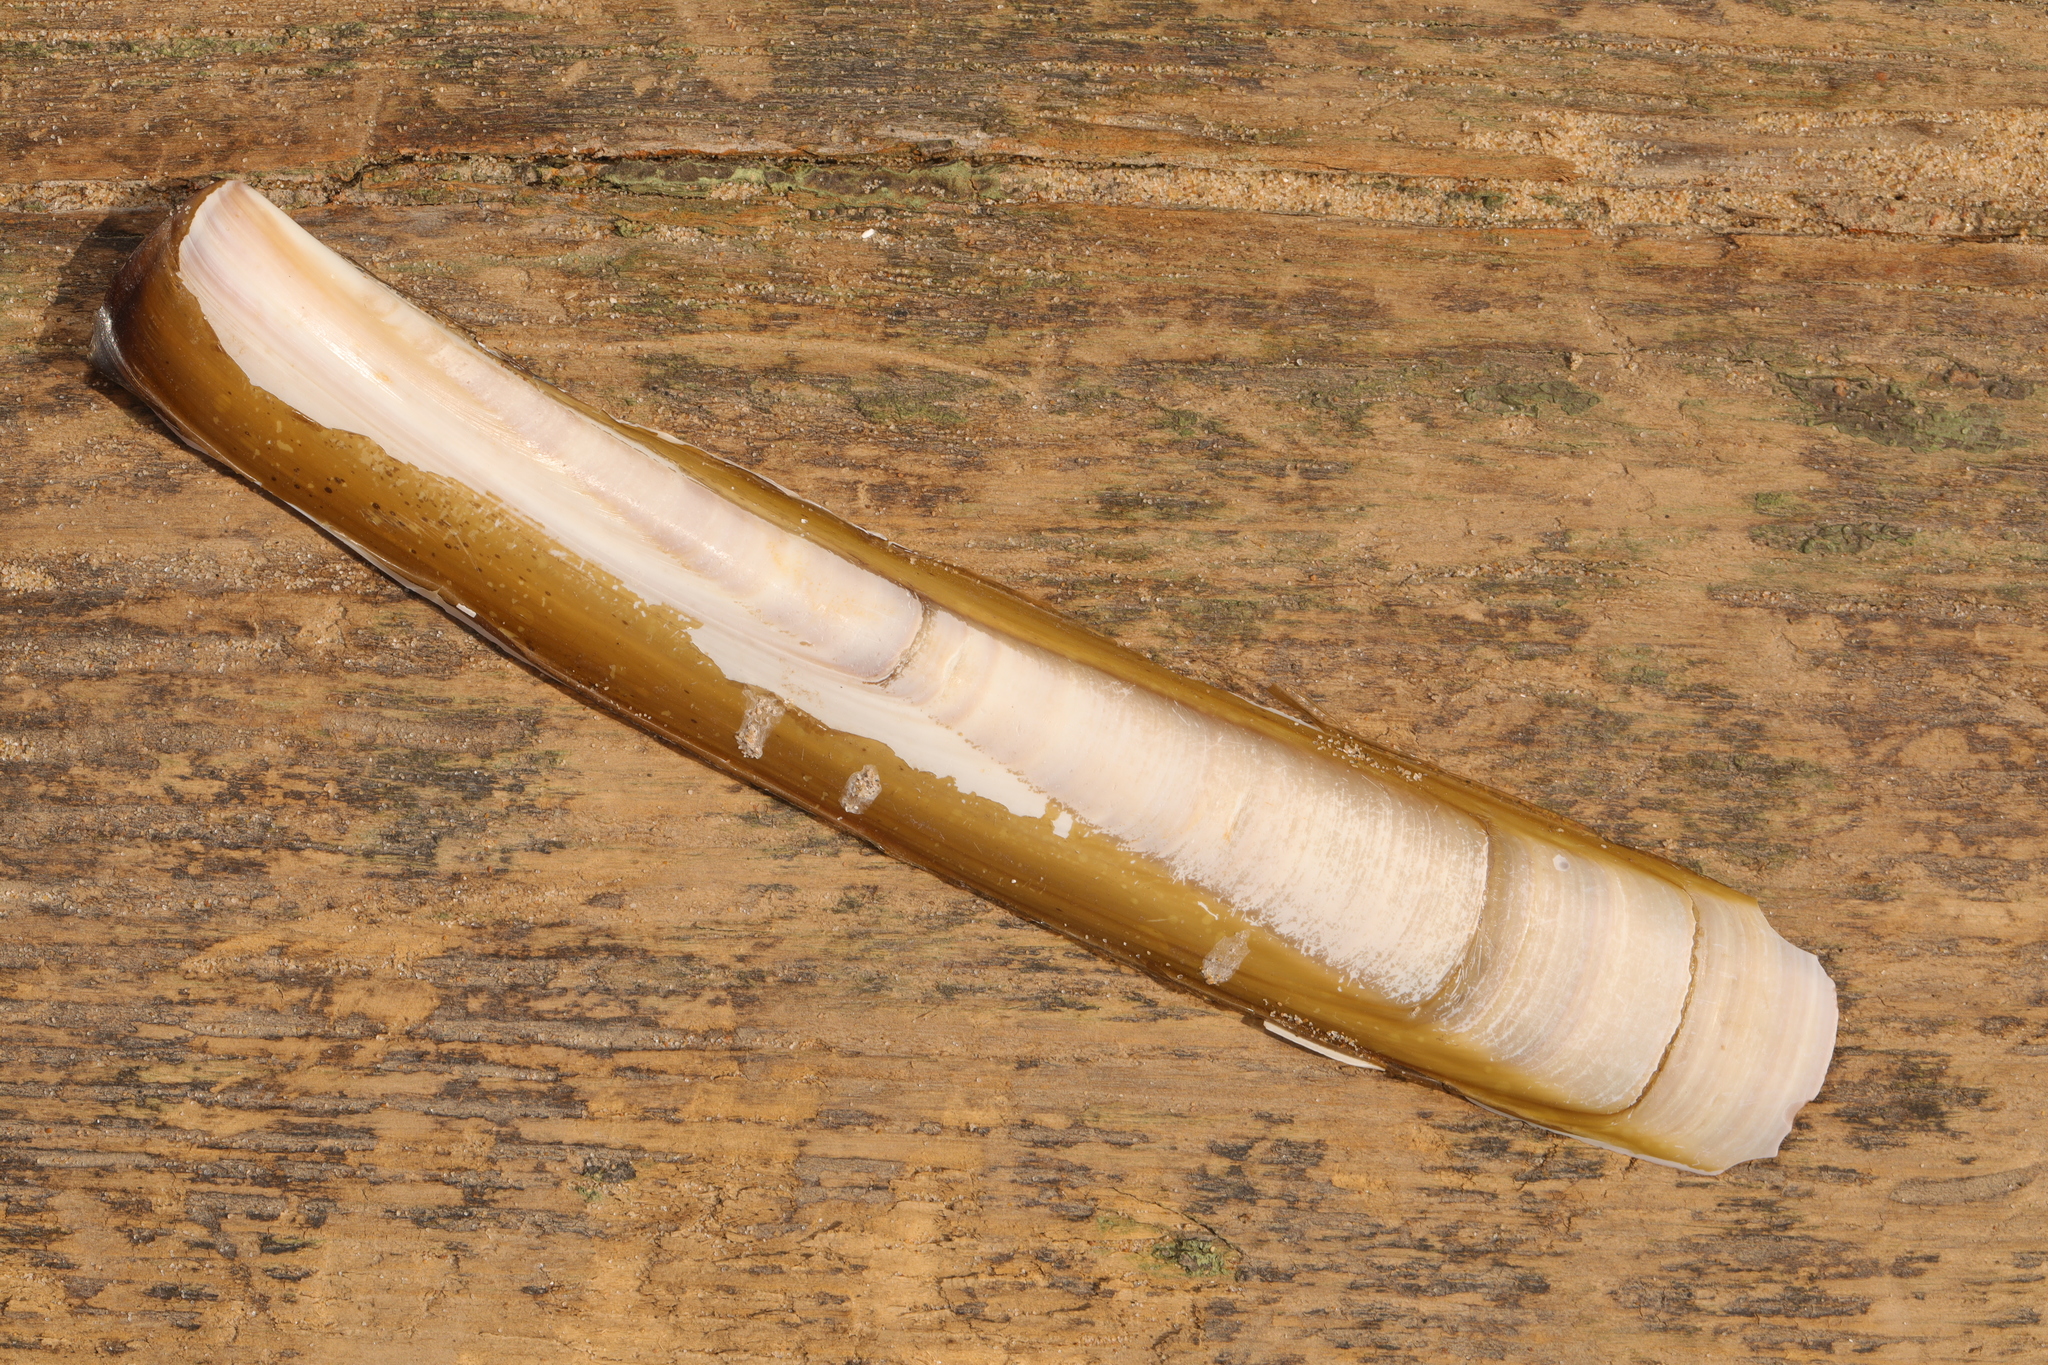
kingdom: Animalia
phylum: Mollusca
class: Bivalvia
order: Adapedonta
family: Pharidae
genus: Ensis
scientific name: Ensis leei
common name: American jack knife clam
